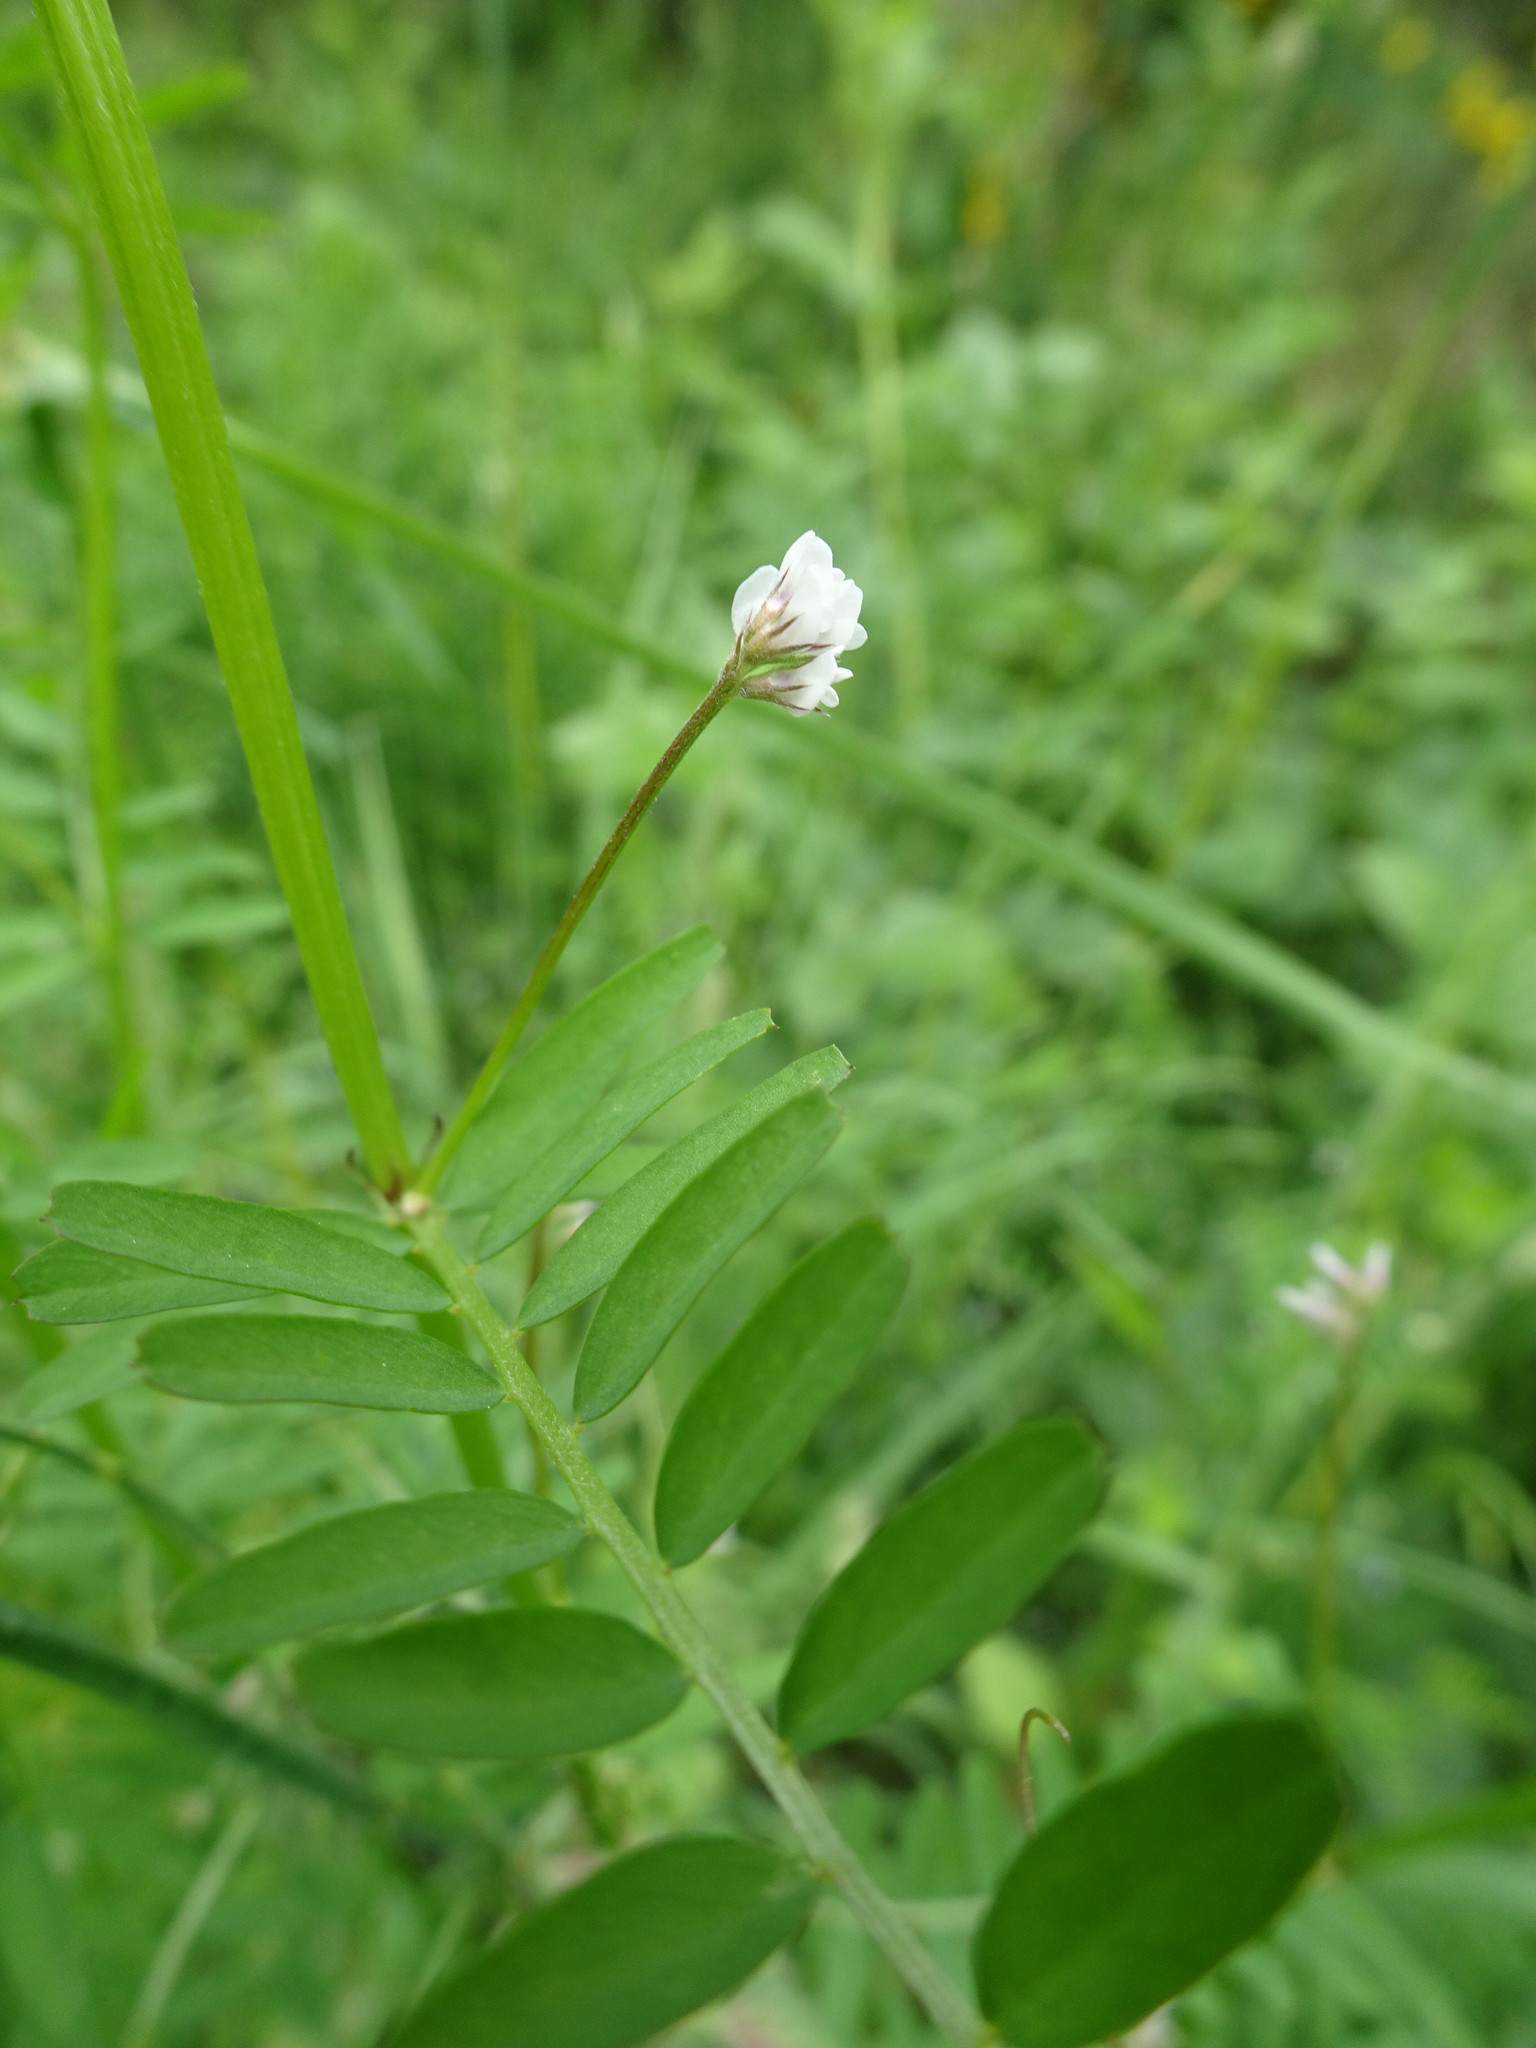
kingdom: Plantae
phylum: Tracheophyta
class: Magnoliopsida
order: Fabales
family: Fabaceae
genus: Vicia
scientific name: Vicia hirsuta
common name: Tiny vetch
